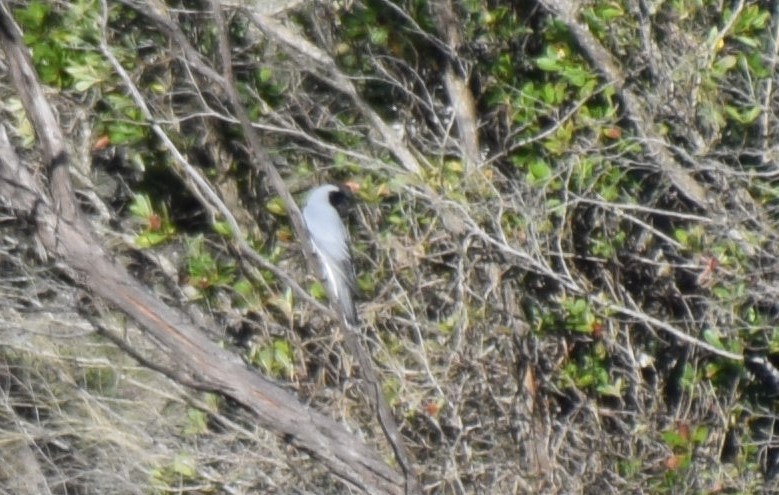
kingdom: Animalia
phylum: Chordata
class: Aves
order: Passeriformes
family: Campephagidae
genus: Coracina
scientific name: Coracina novaehollandiae
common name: Black-faced cuckooshrike
